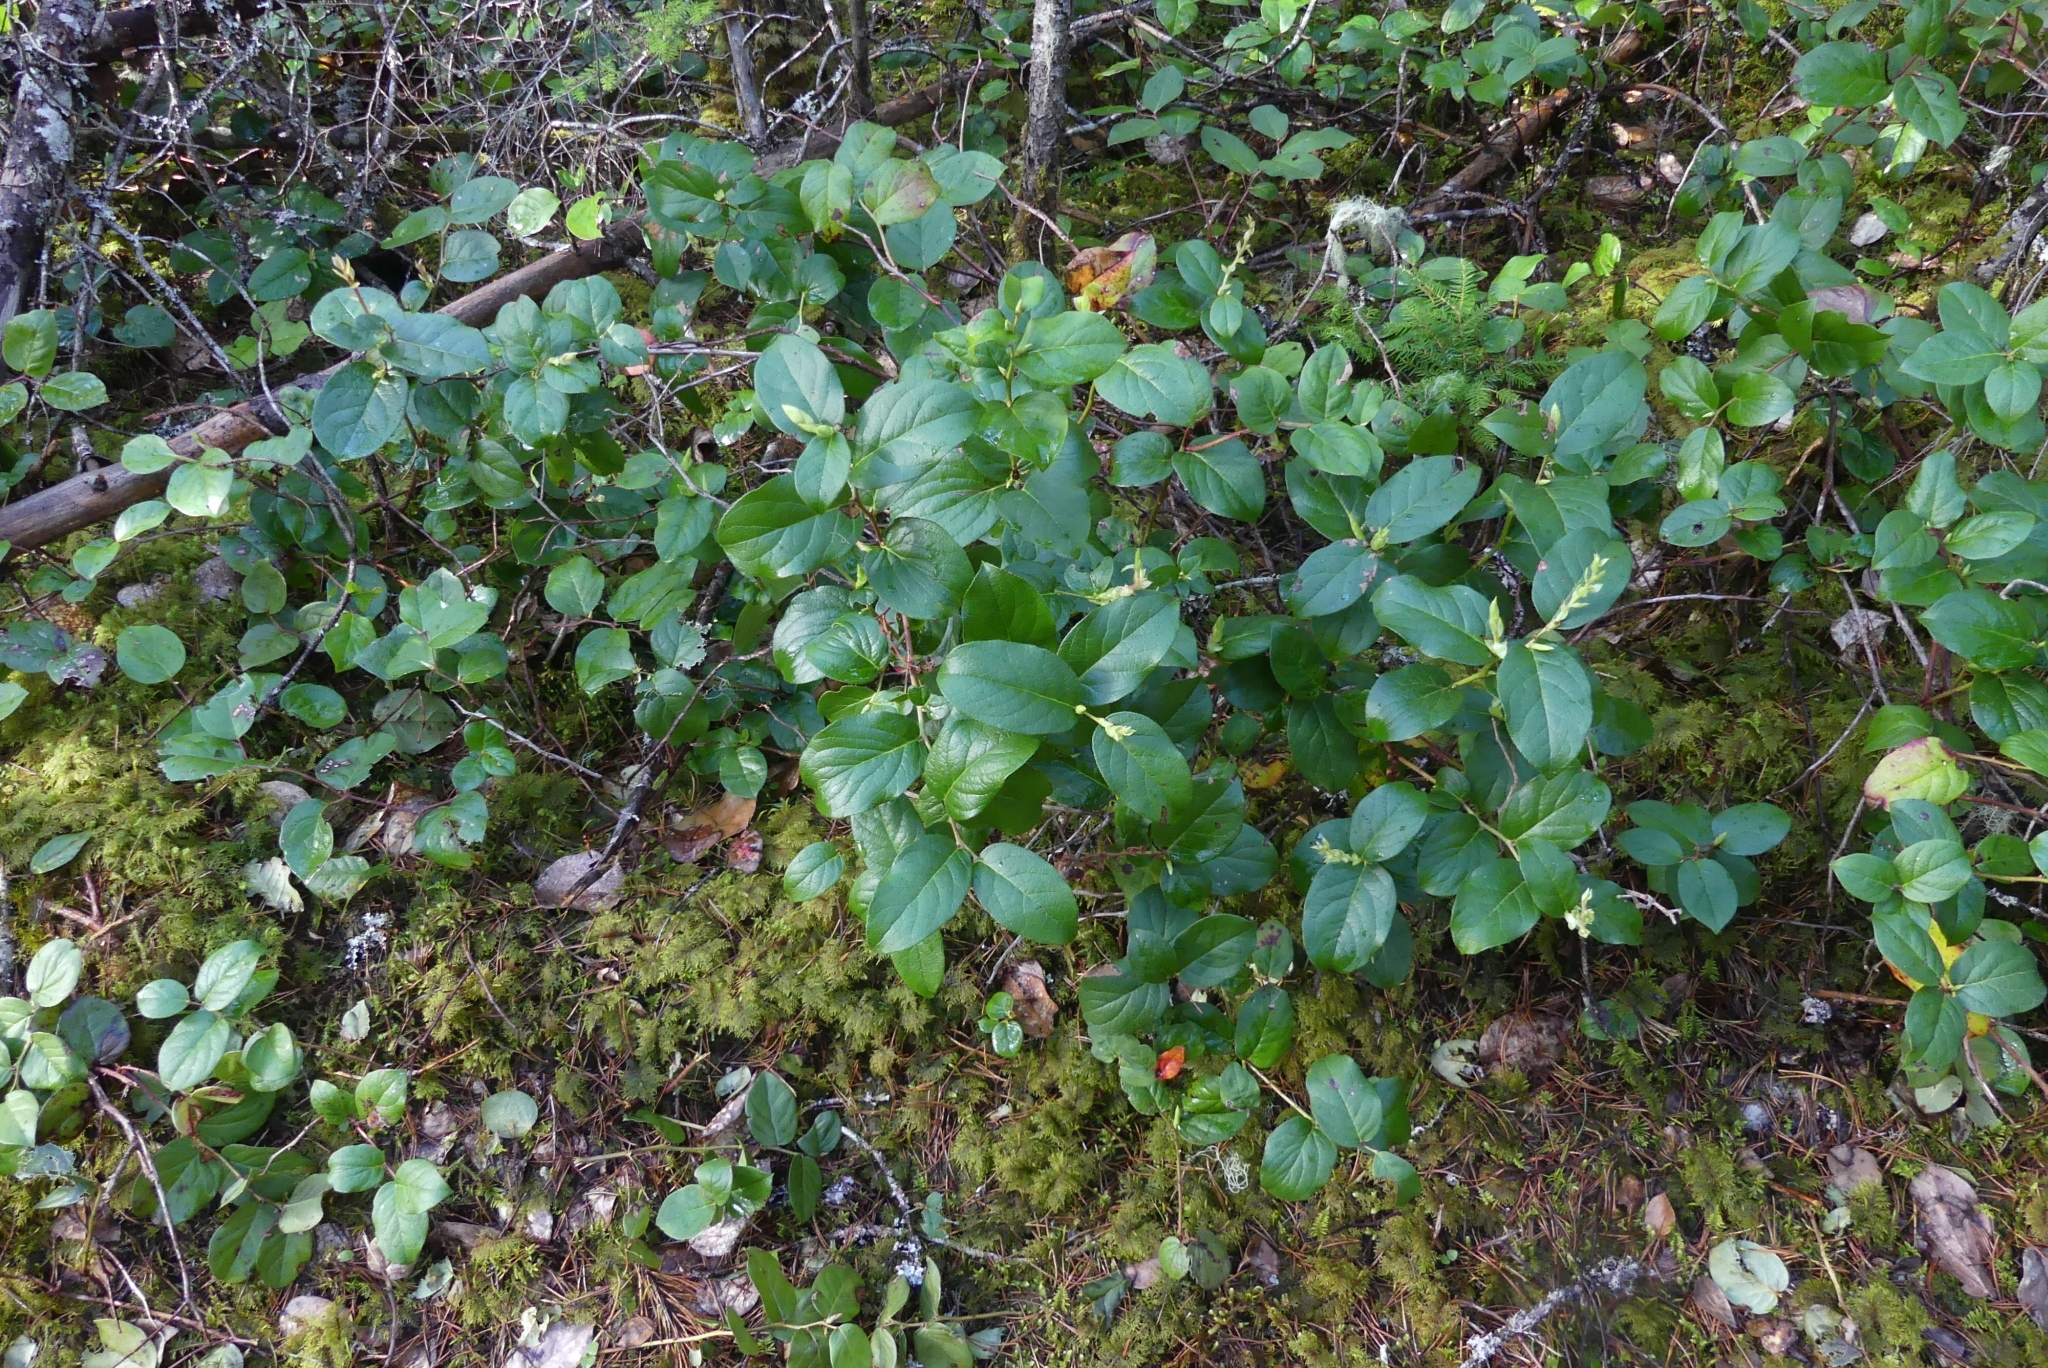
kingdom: Plantae
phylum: Tracheophyta
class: Magnoliopsida
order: Ericales
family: Ericaceae
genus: Gaultheria
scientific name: Gaultheria shallon
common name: Shallon
